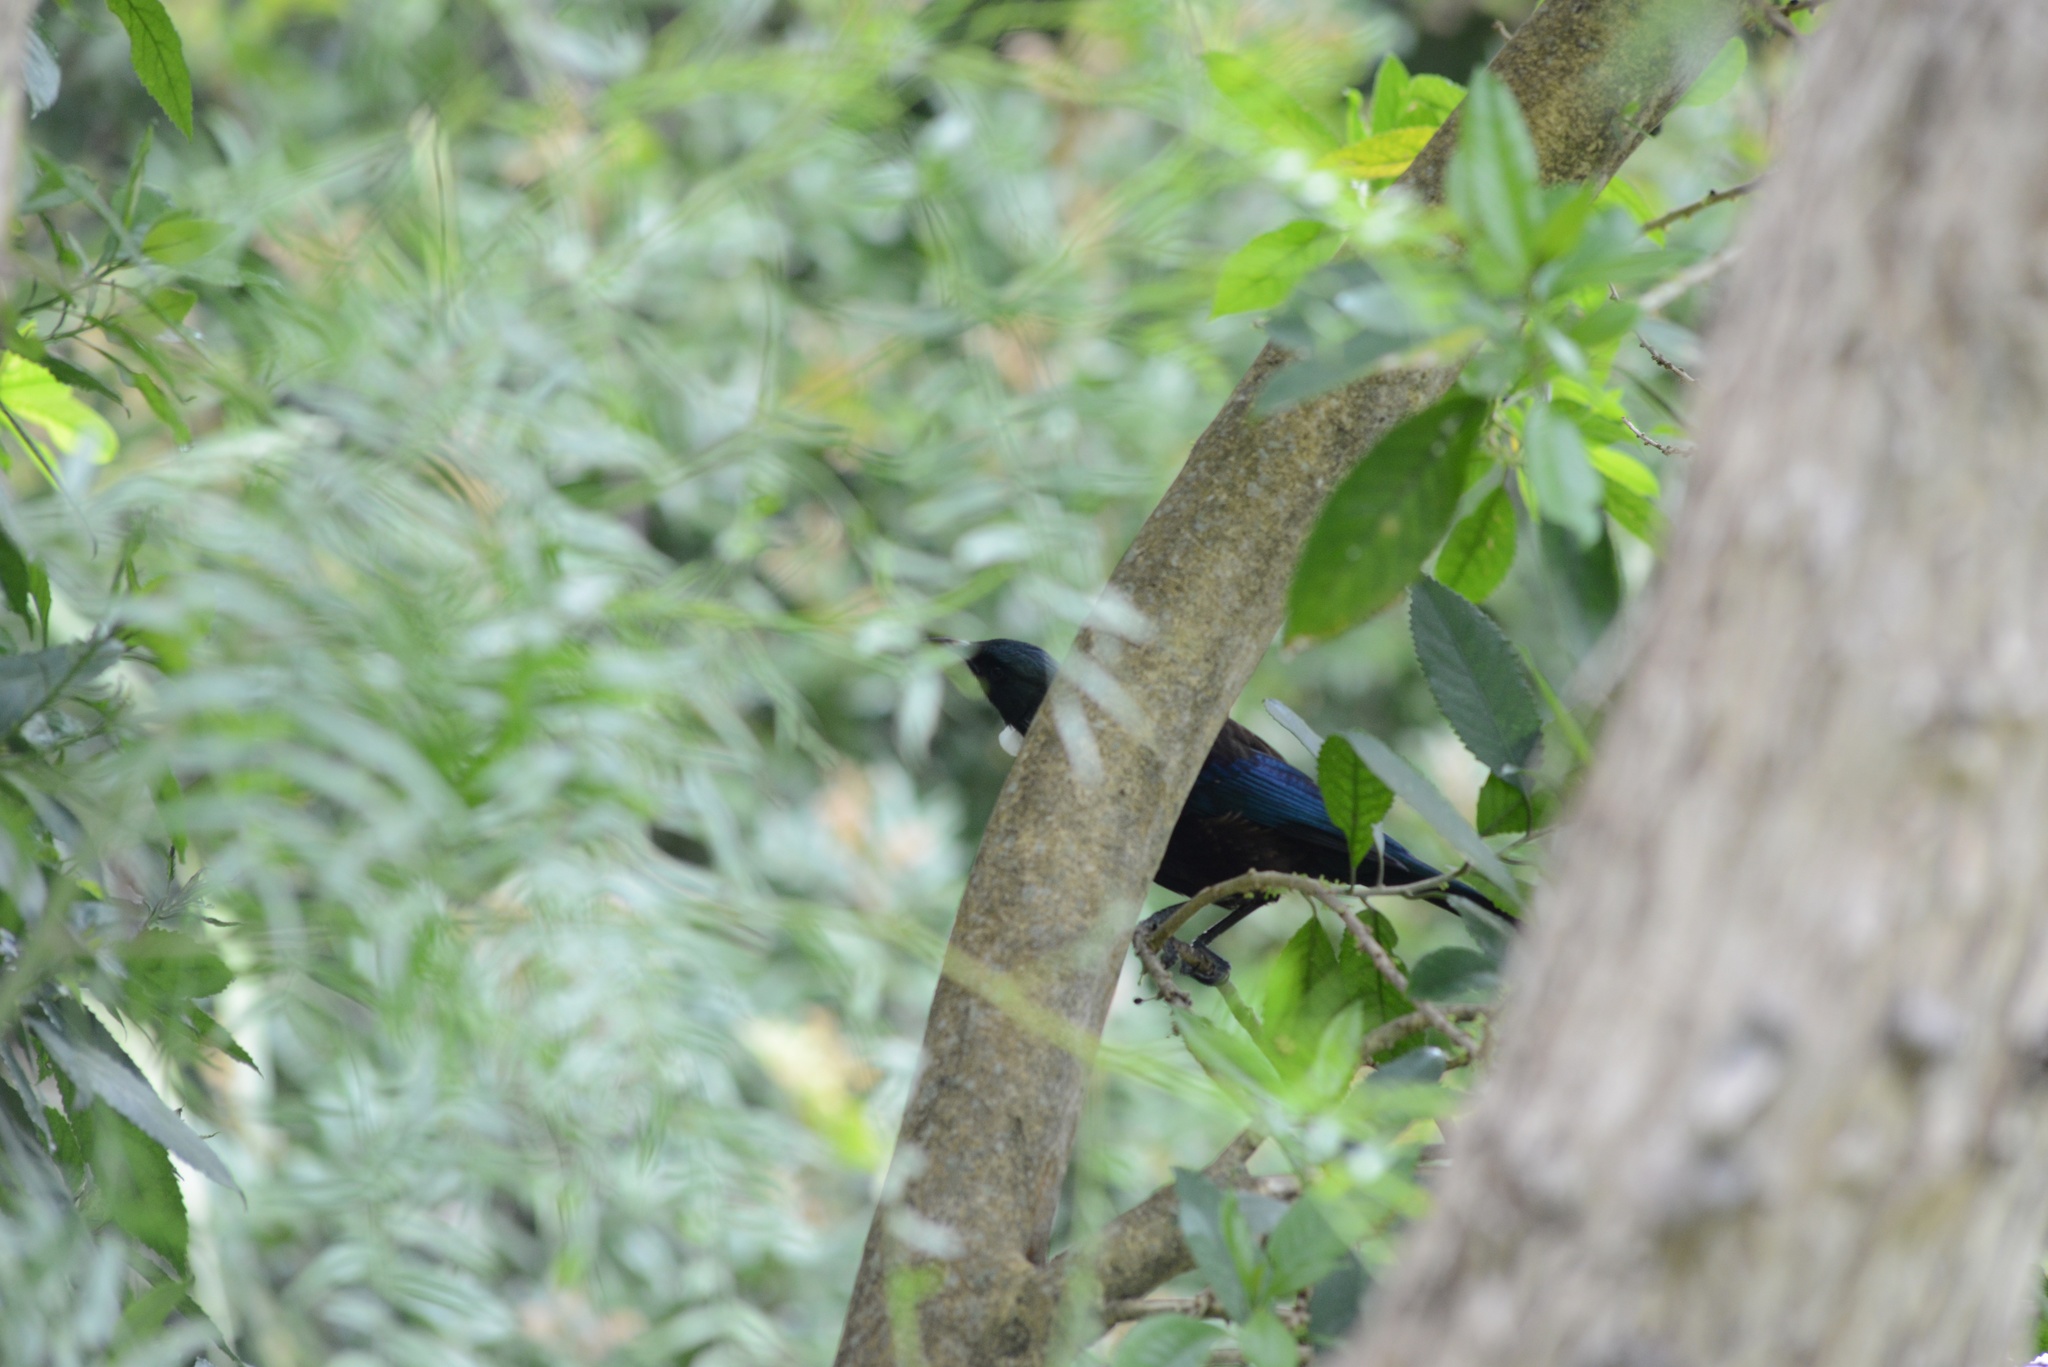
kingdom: Animalia
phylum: Chordata
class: Aves
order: Passeriformes
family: Meliphagidae
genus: Prosthemadera
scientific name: Prosthemadera novaeseelandiae
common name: Tui
